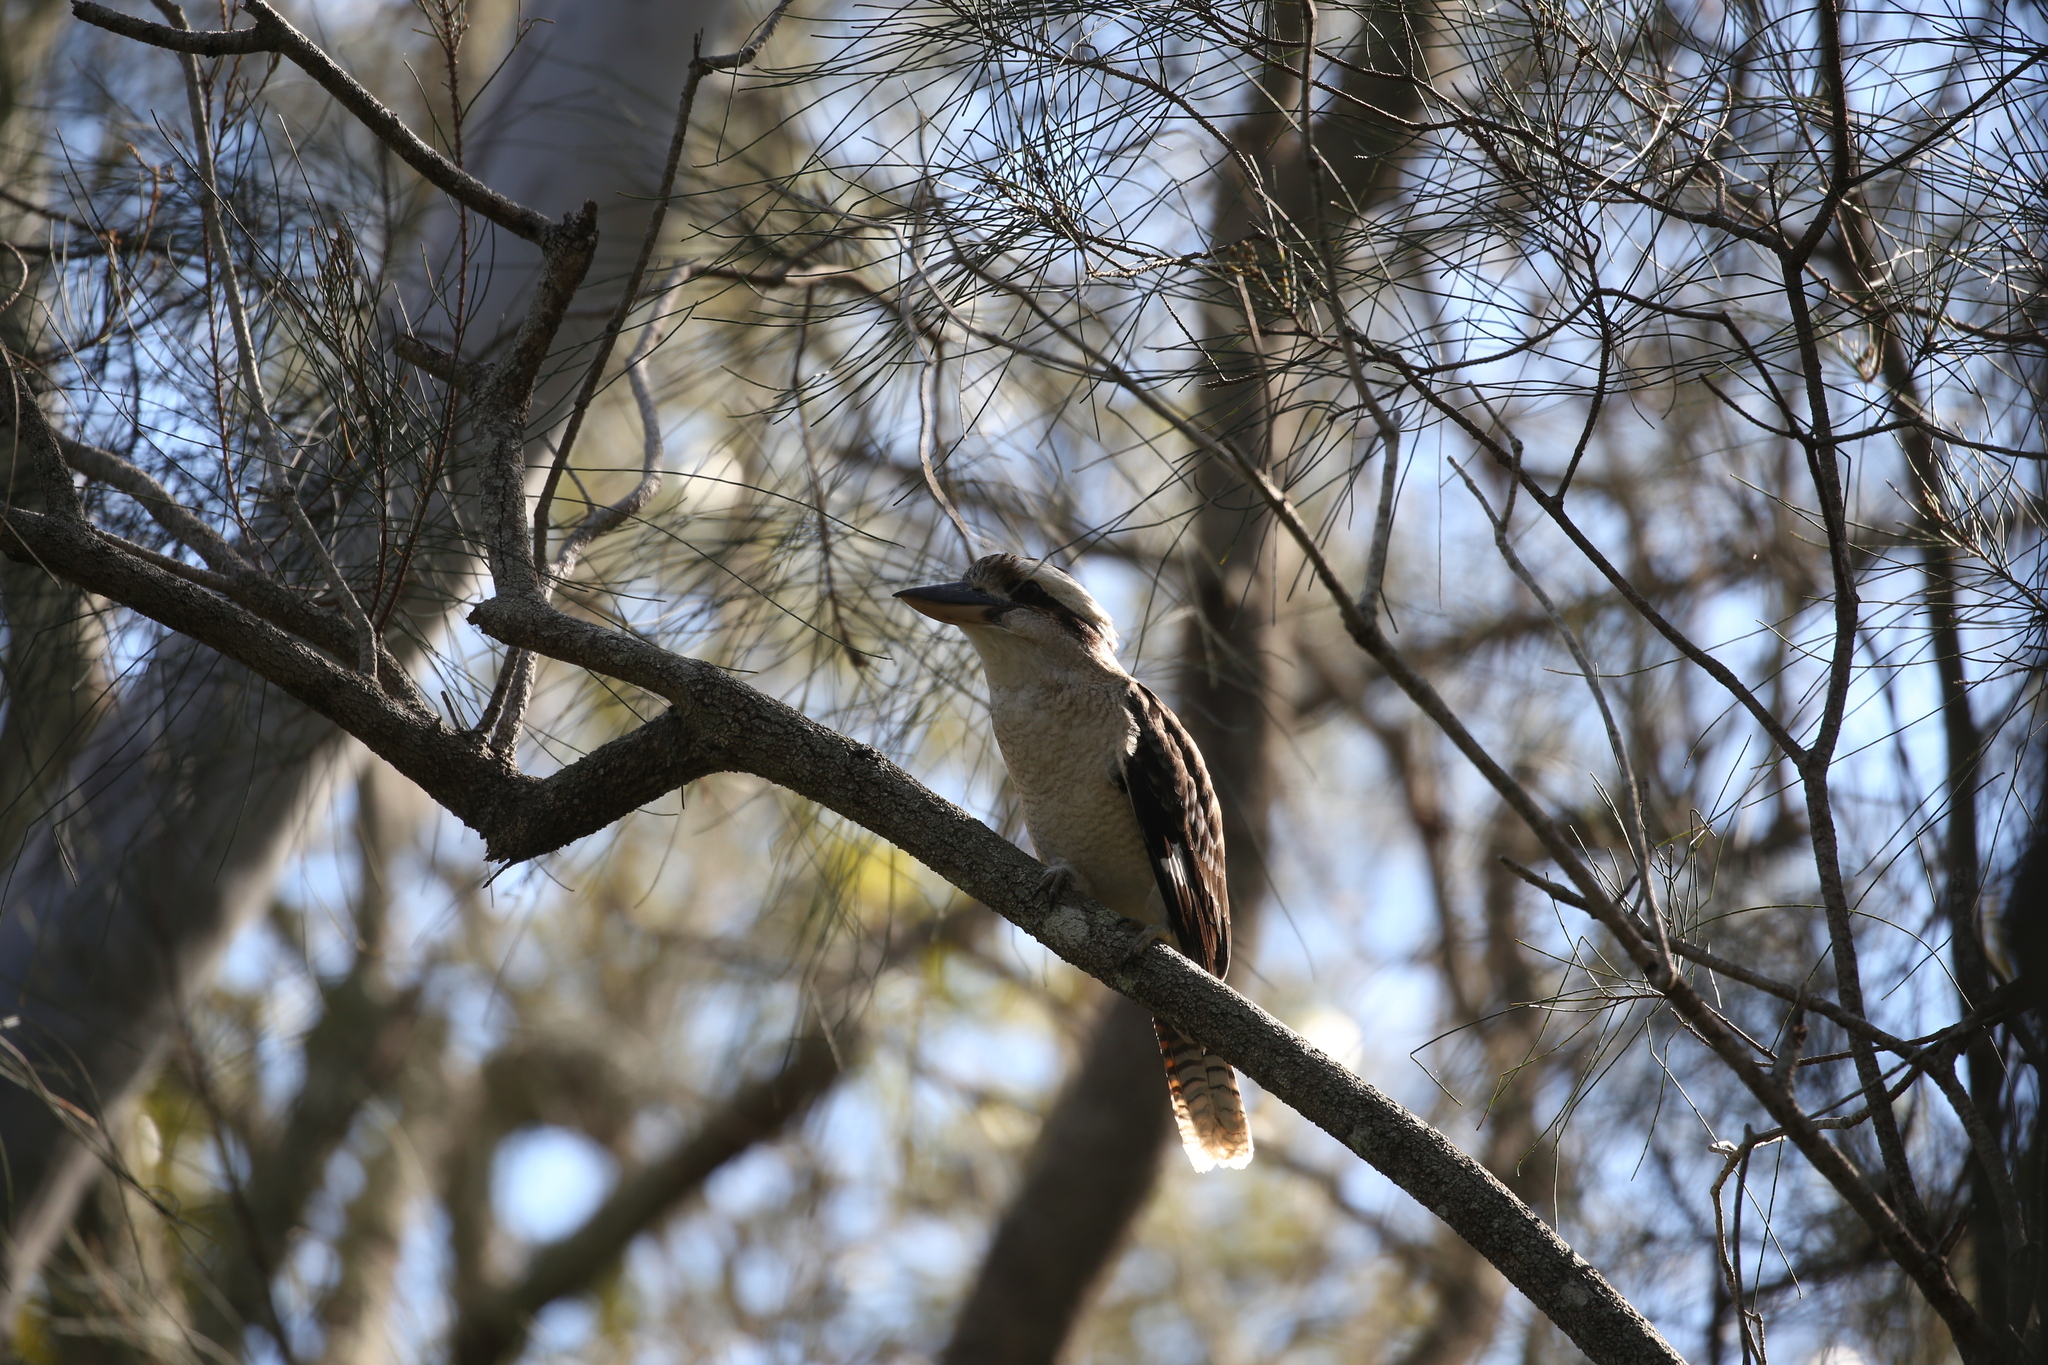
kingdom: Animalia
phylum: Chordata
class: Aves
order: Coraciiformes
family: Alcedinidae
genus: Dacelo
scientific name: Dacelo novaeguineae
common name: Laughing kookaburra
